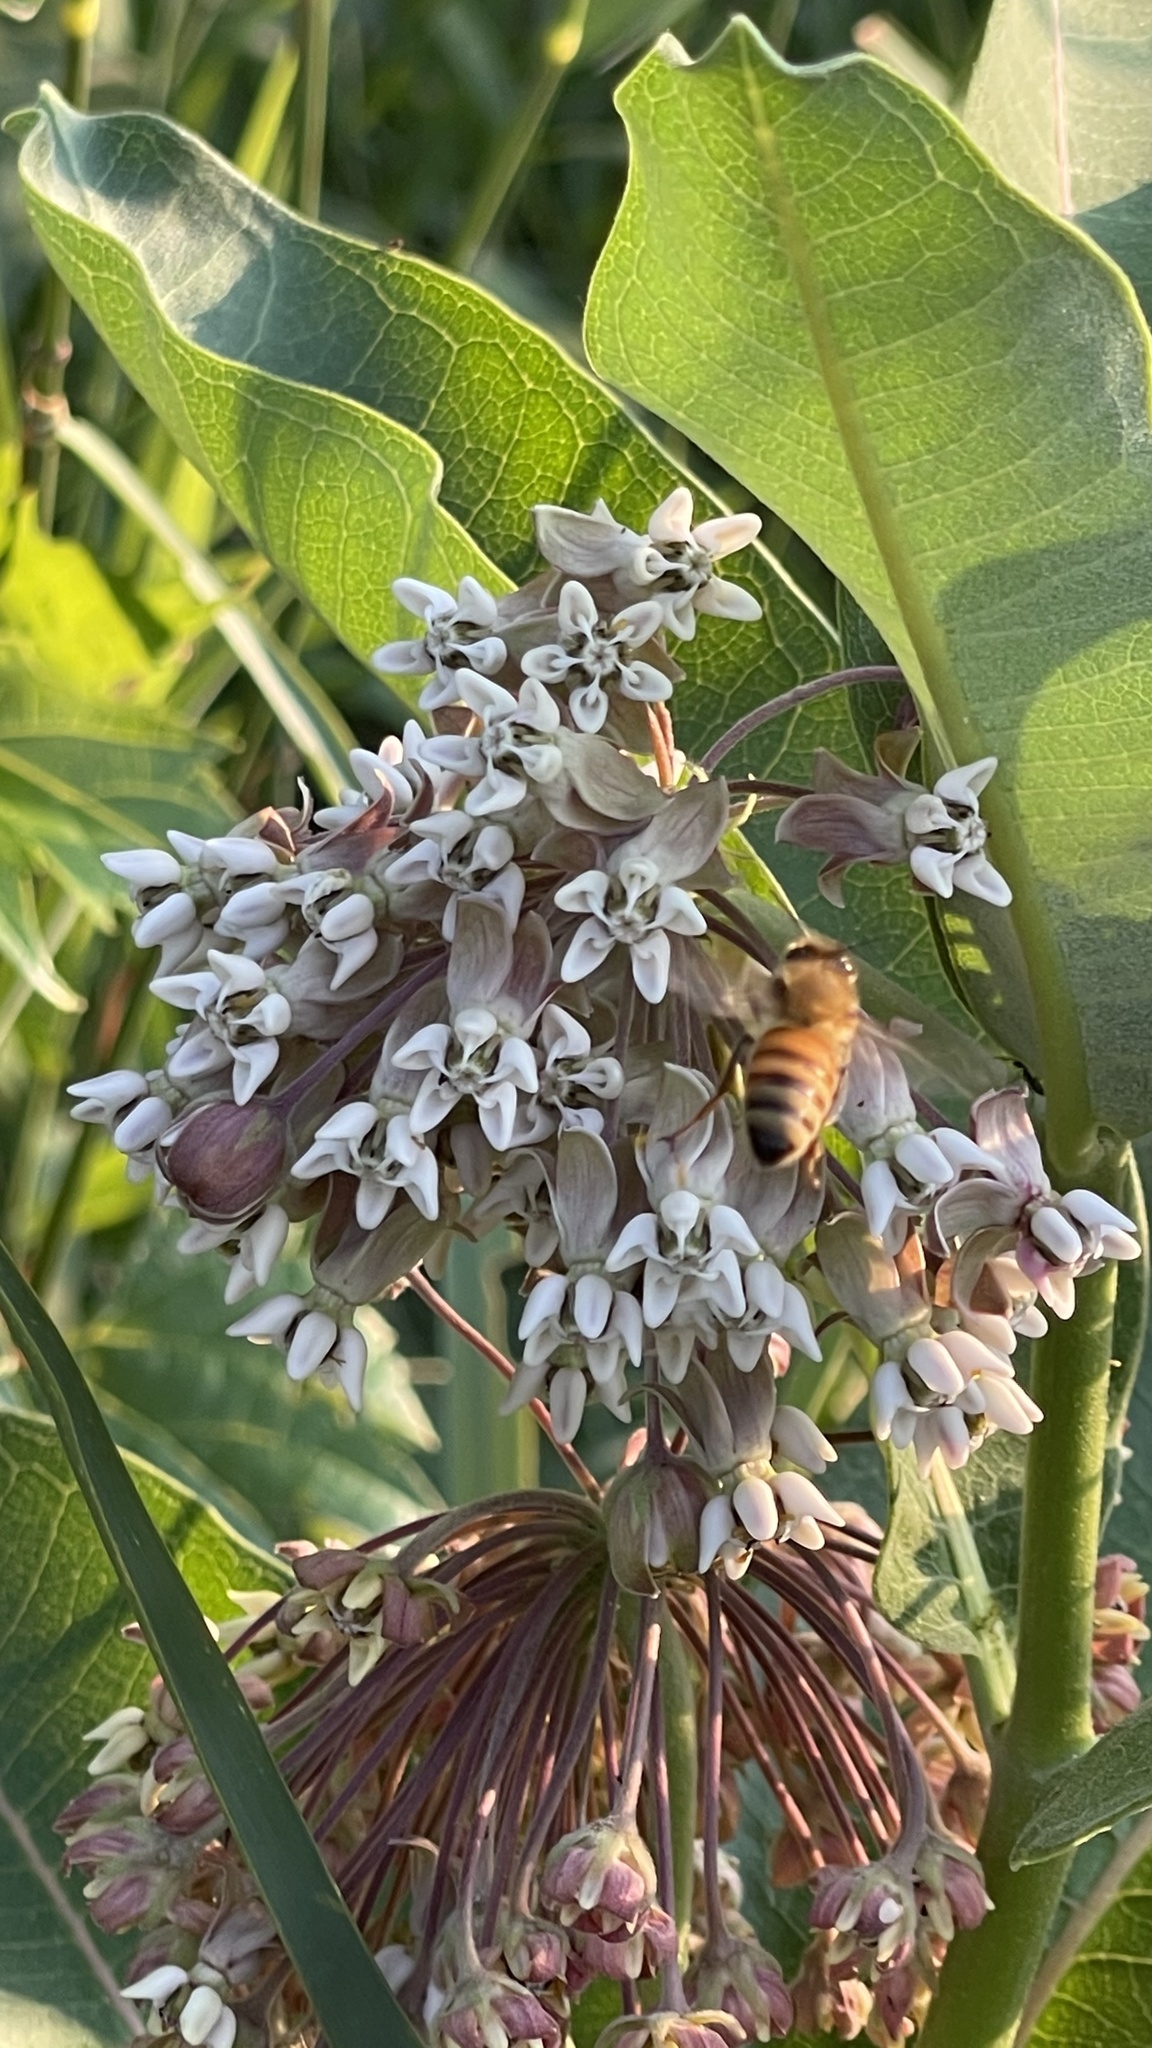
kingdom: Animalia
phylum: Arthropoda
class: Insecta
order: Hymenoptera
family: Apidae
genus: Apis
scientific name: Apis mellifera
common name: Honey bee
